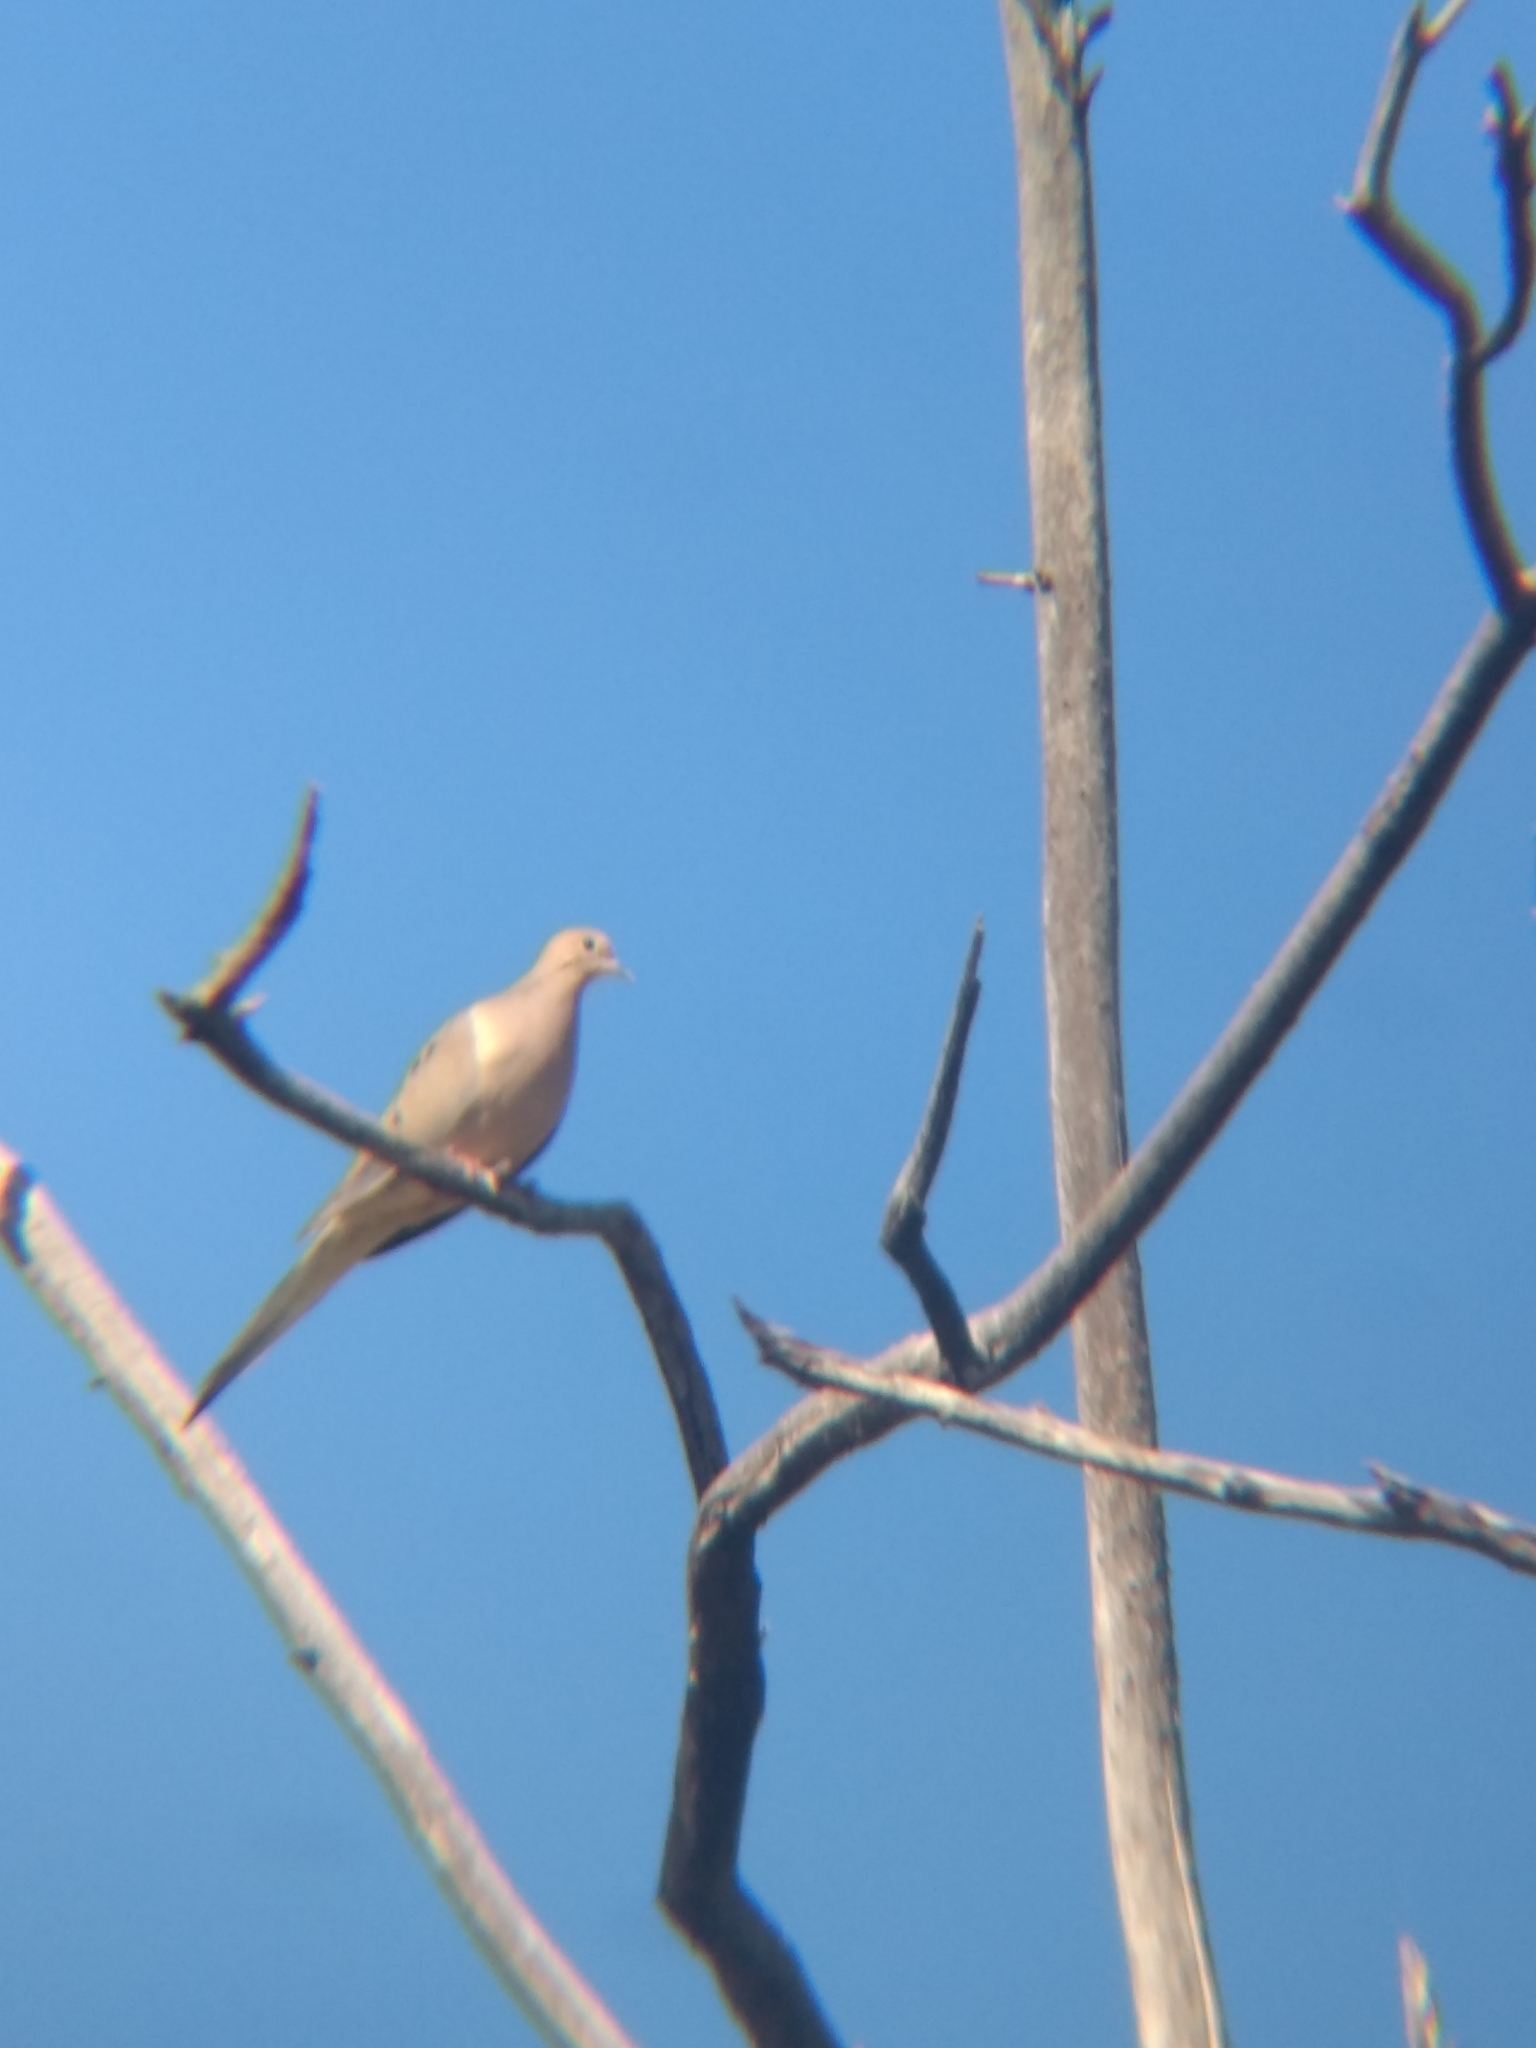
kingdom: Animalia
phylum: Chordata
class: Aves
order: Columbiformes
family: Columbidae
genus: Zenaida
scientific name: Zenaida macroura
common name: Mourning dove
